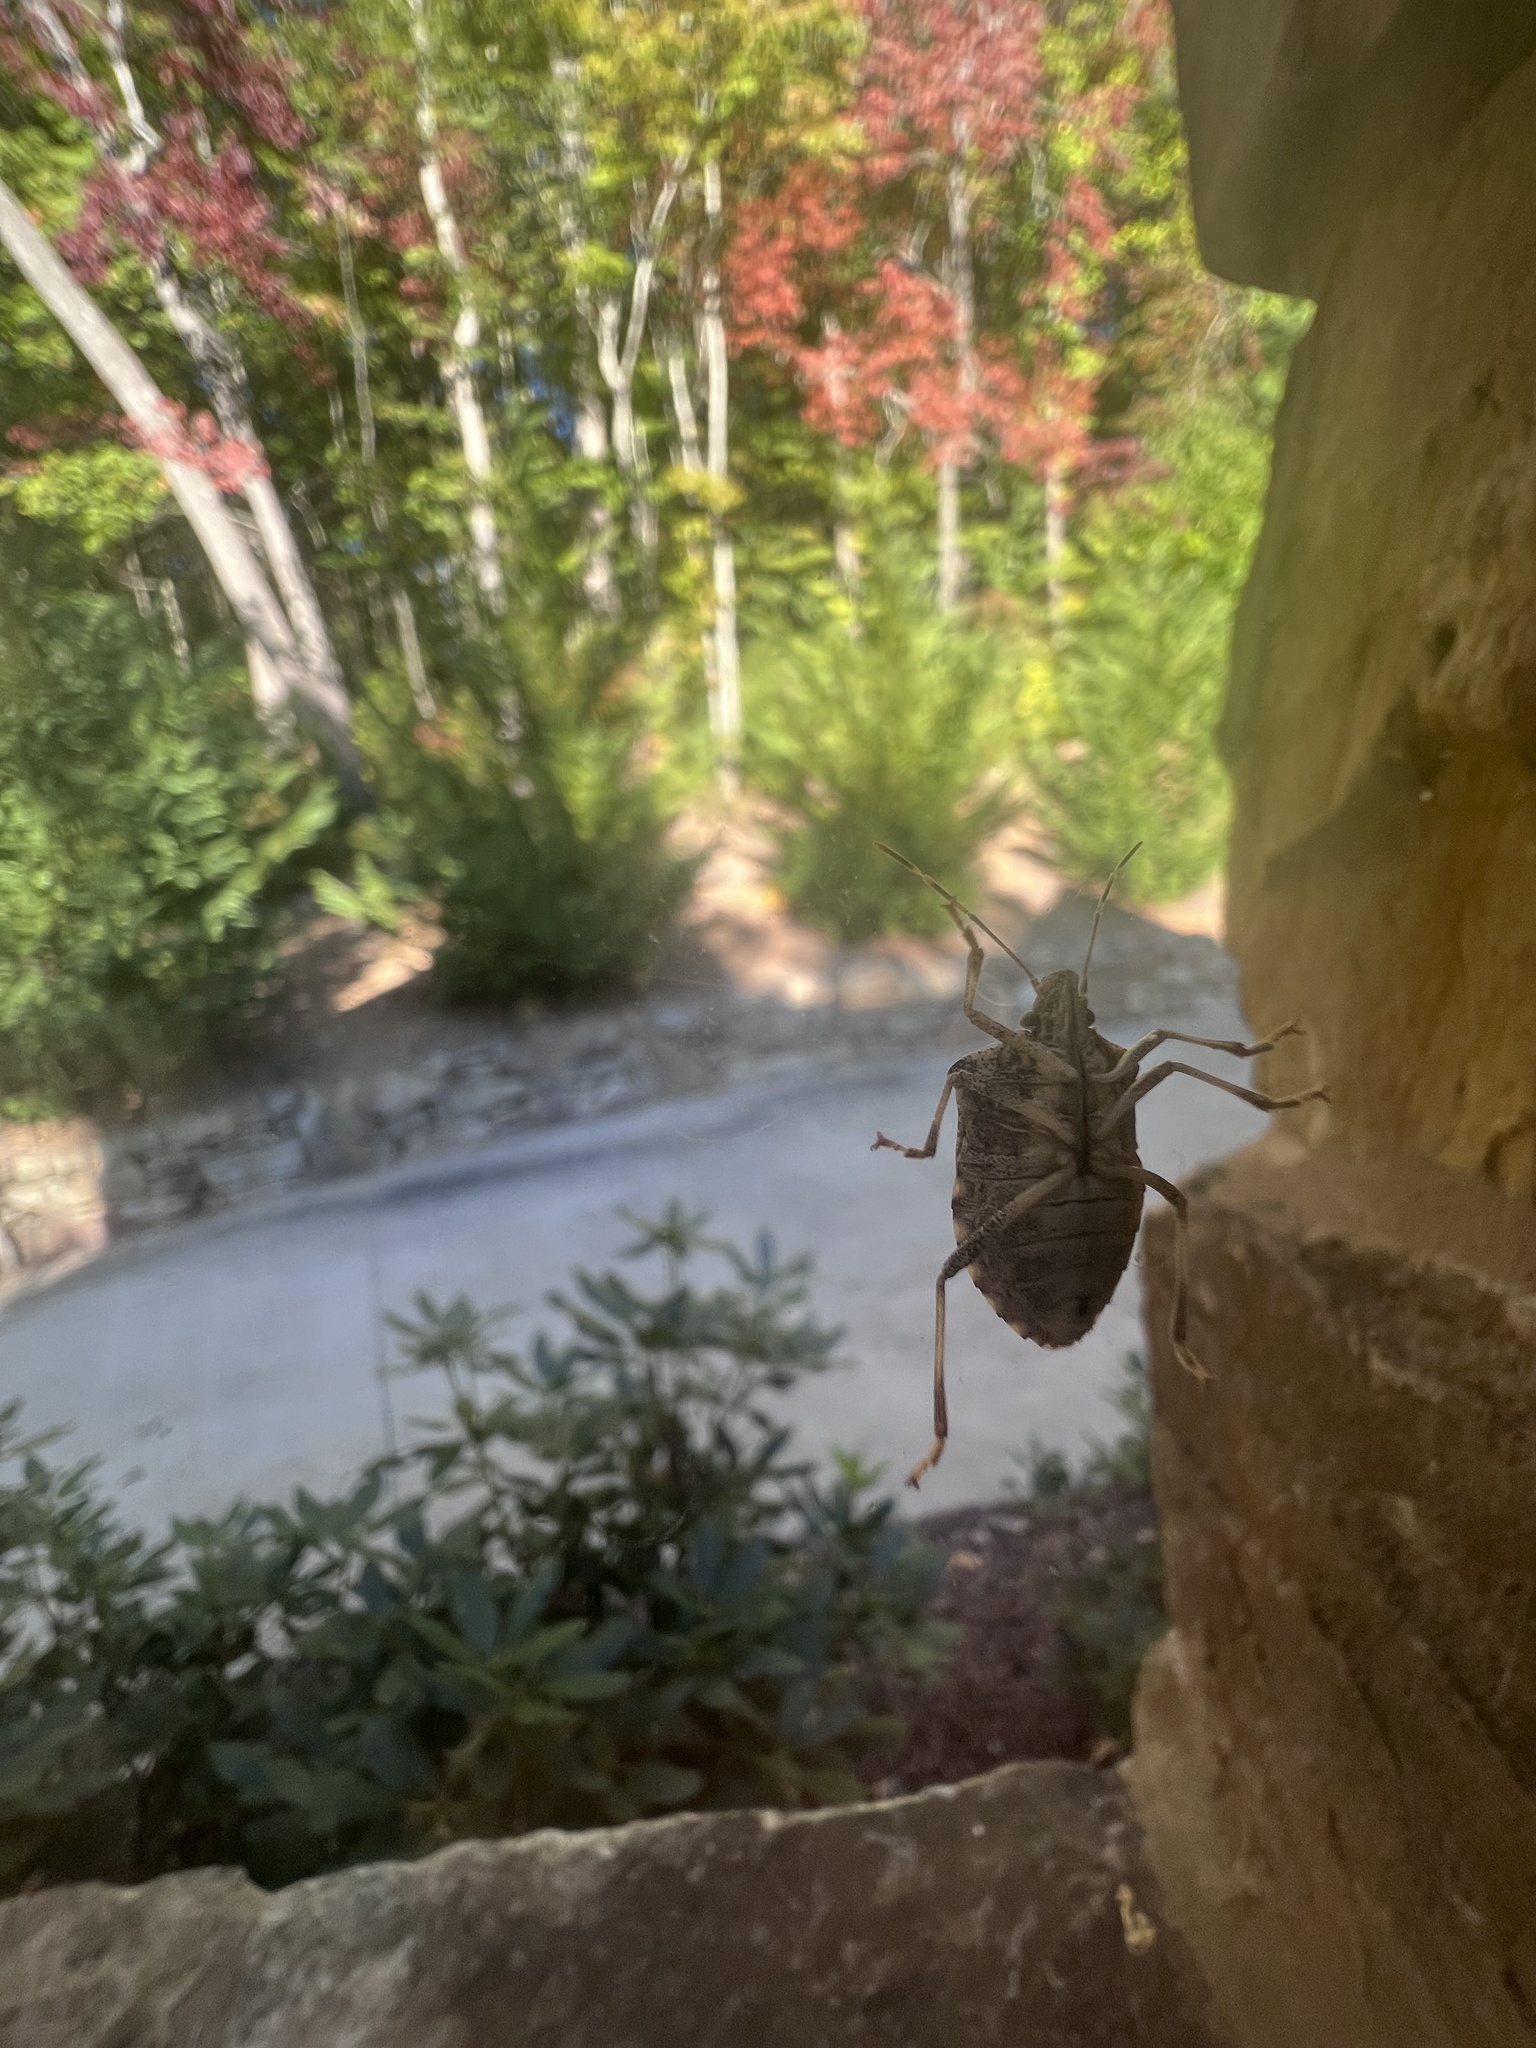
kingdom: Animalia
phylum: Arthropoda
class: Insecta
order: Hemiptera
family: Pentatomidae
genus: Halyomorpha
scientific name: Halyomorpha halys
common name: Brown marmorated stink bug
